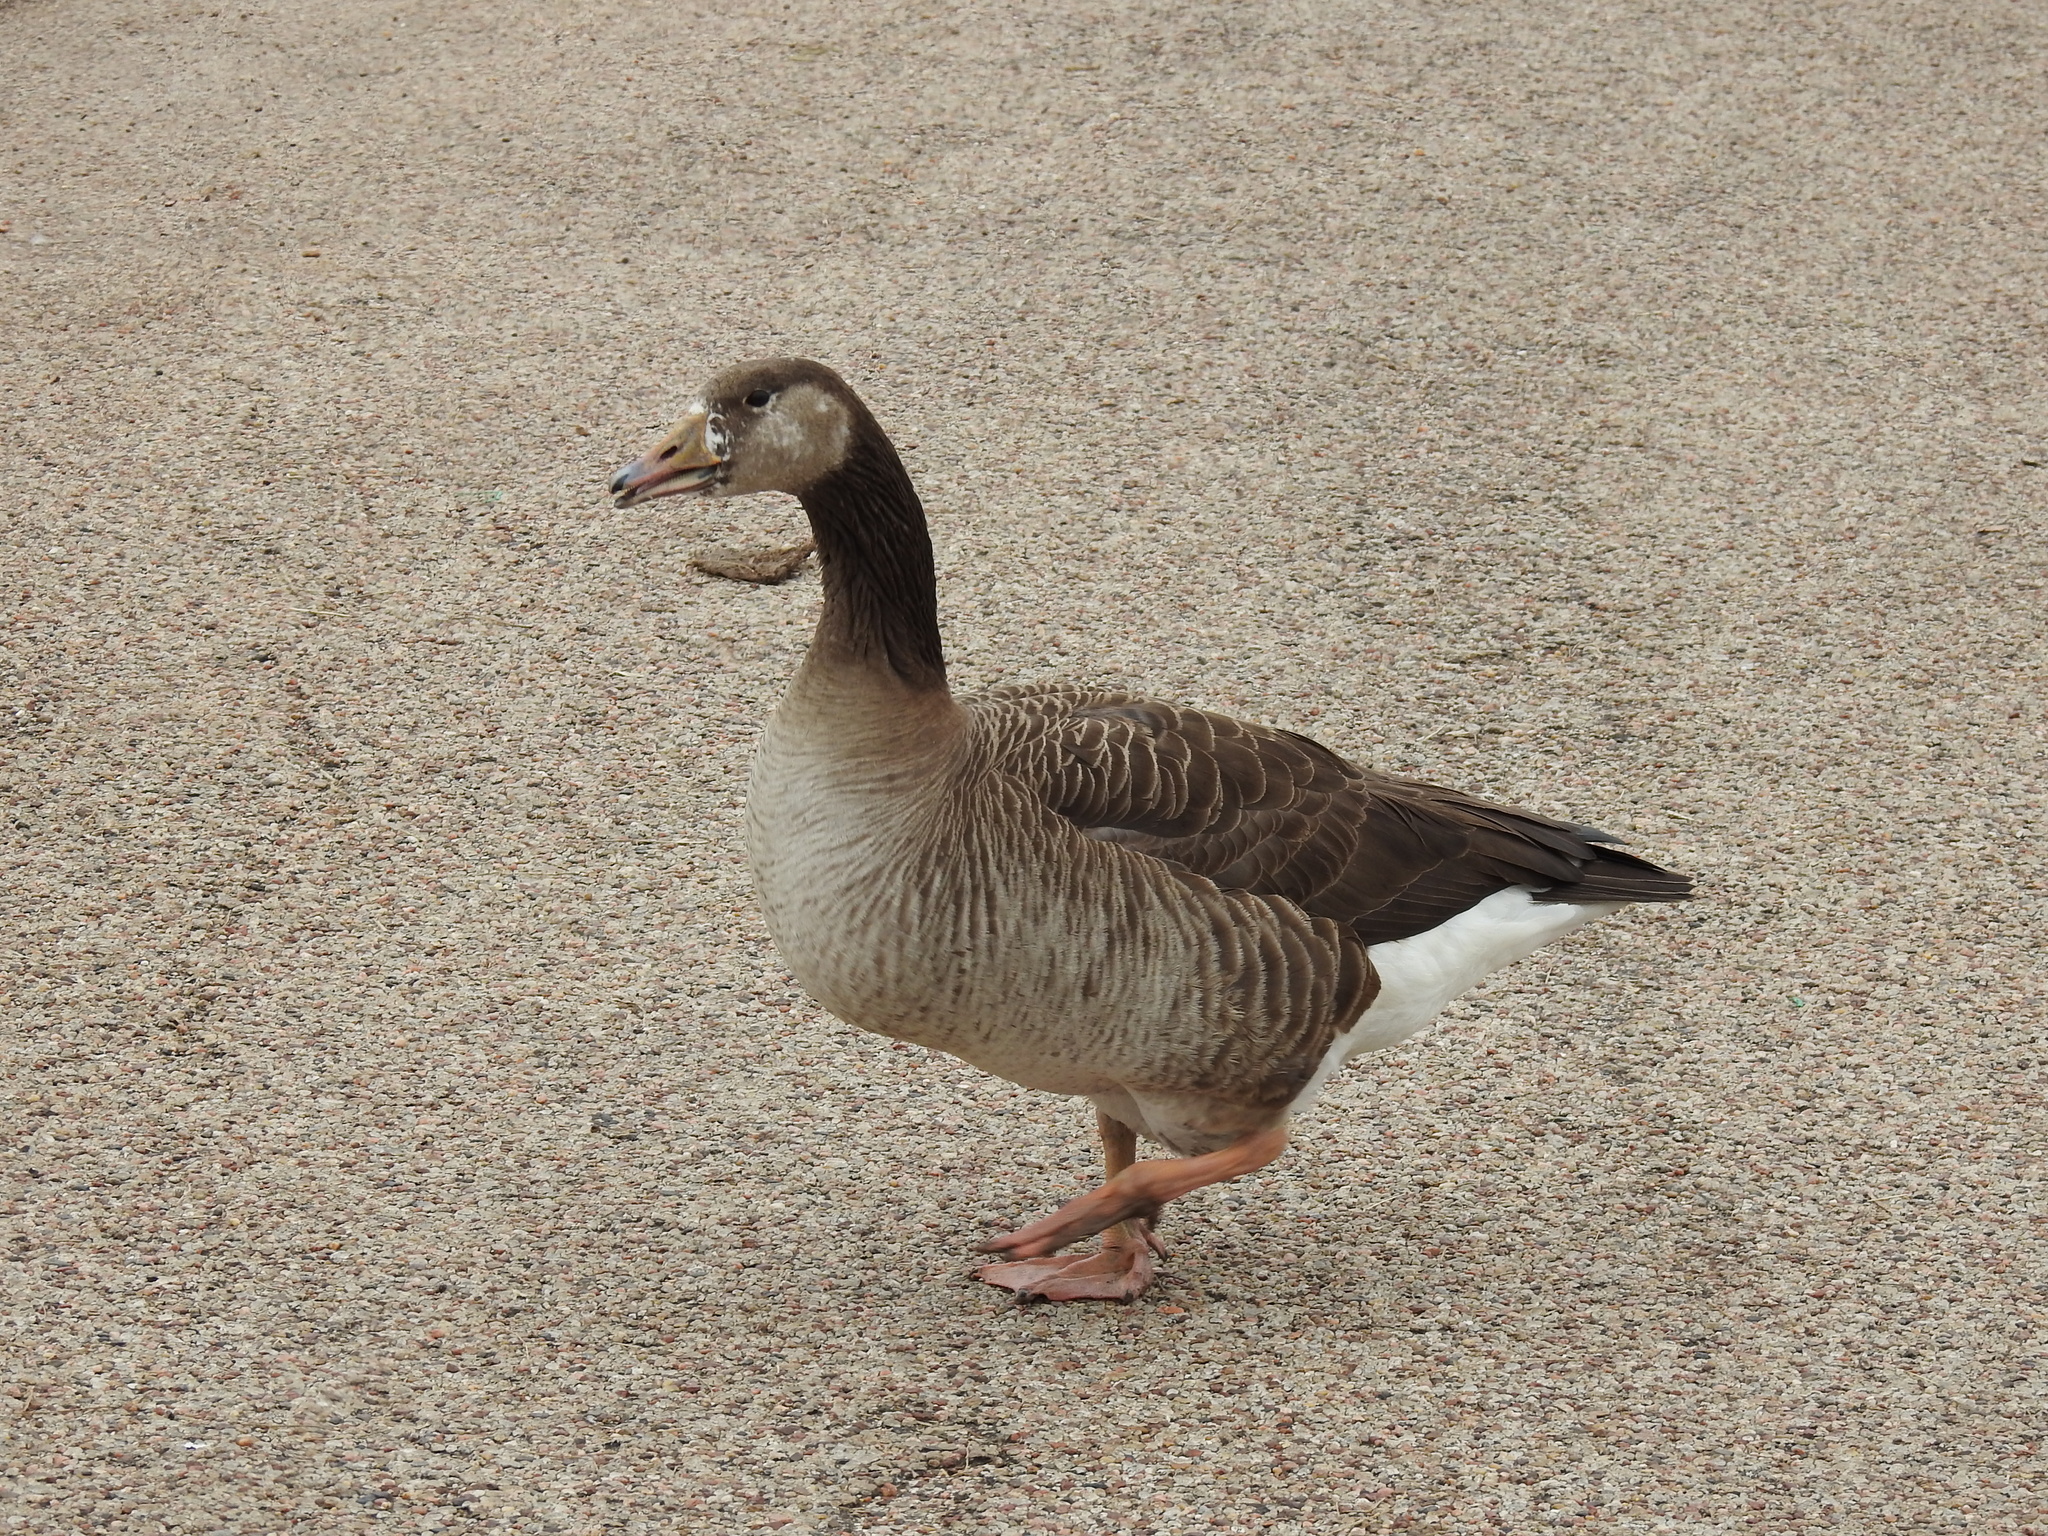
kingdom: Animalia
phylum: Chordata
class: Aves
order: Anseriformes
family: Anatidae
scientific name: Anatidae
